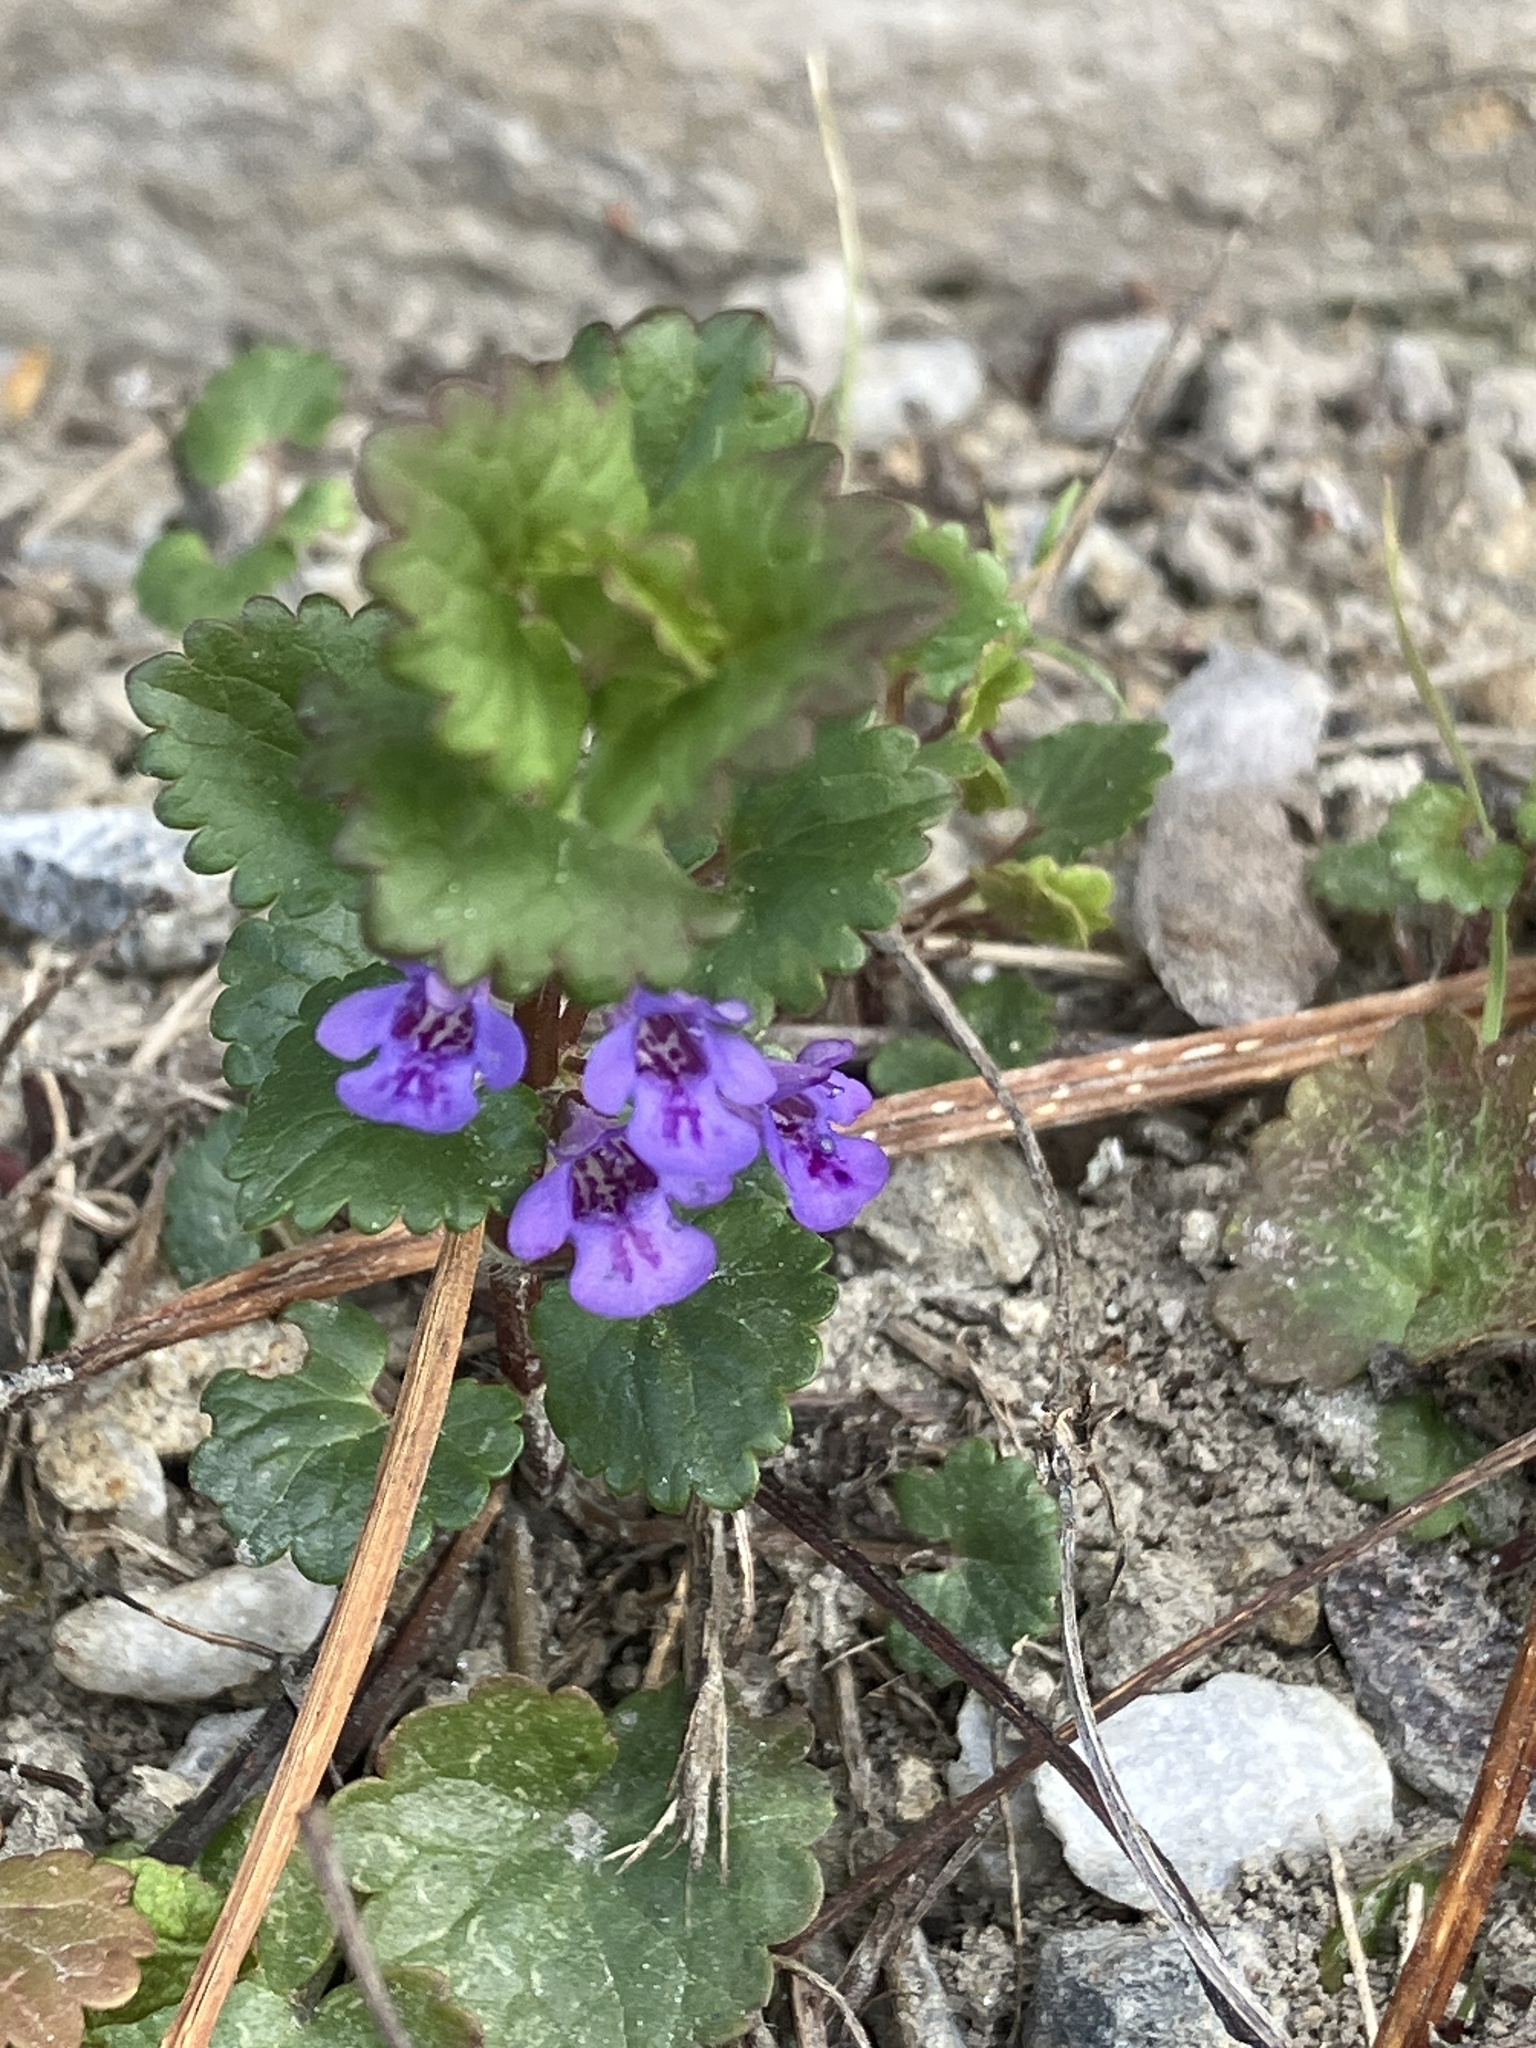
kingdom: Plantae
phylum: Tracheophyta
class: Magnoliopsida
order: Lamiales
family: Lamiaceae
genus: Glechoma
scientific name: Glechoma hederacea
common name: Ground ivy
